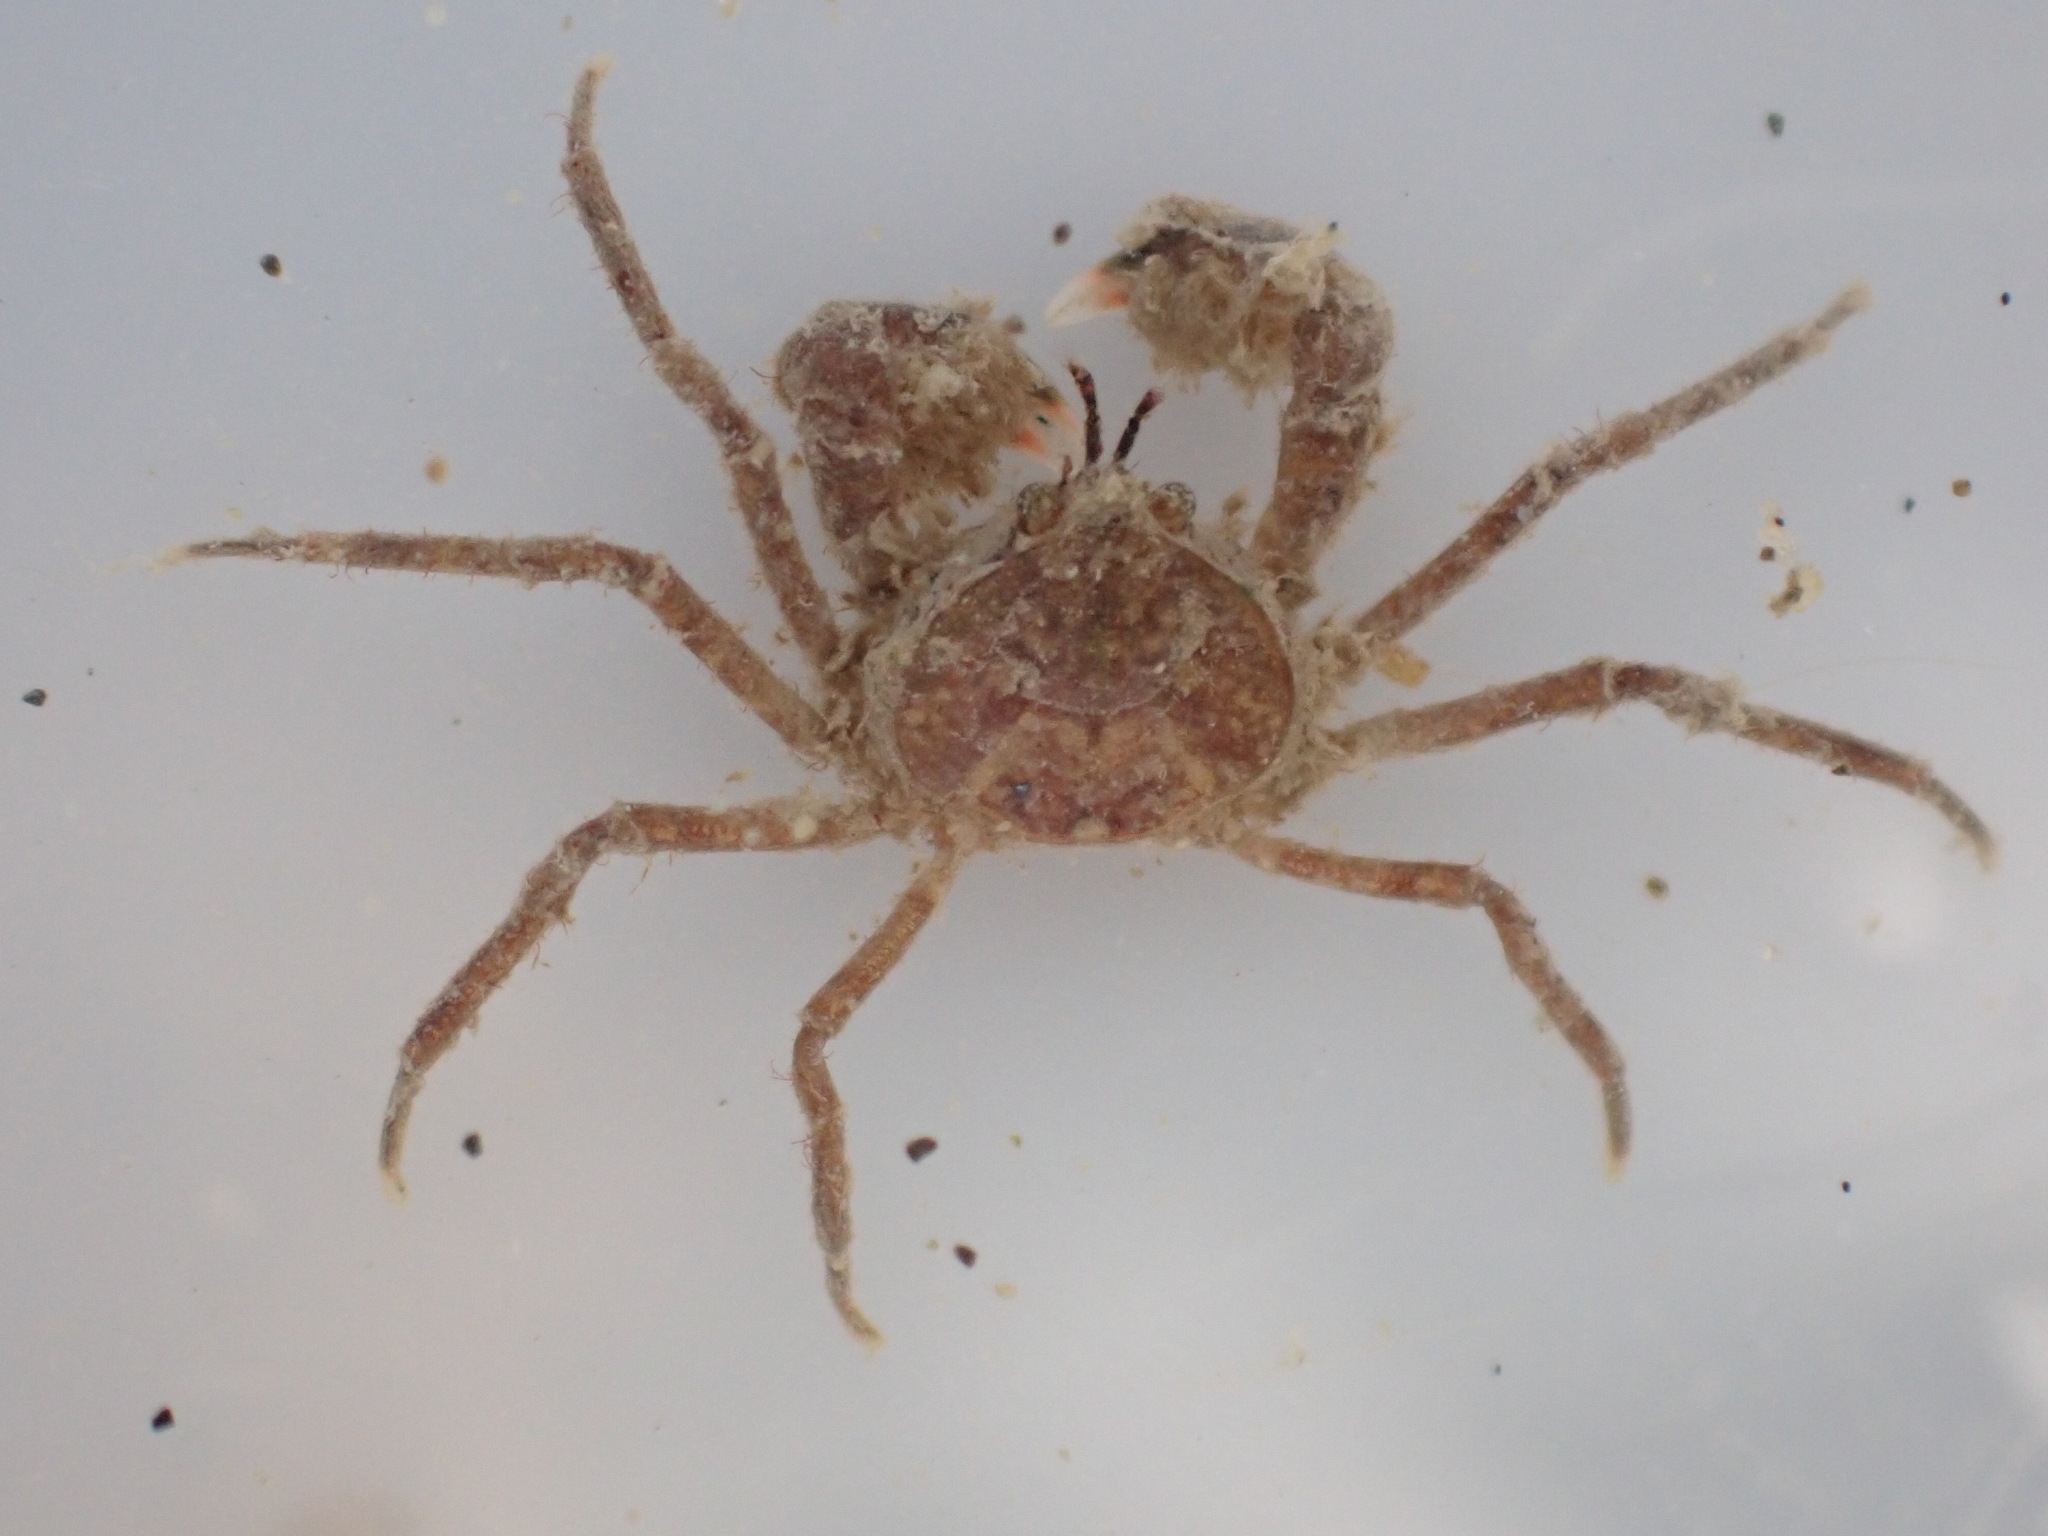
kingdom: Animalia
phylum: Arthropoda
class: Malacostraca
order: Decapoda
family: Hymenosomatidae
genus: Halicarcinus
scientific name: Halicarcinus whitei
